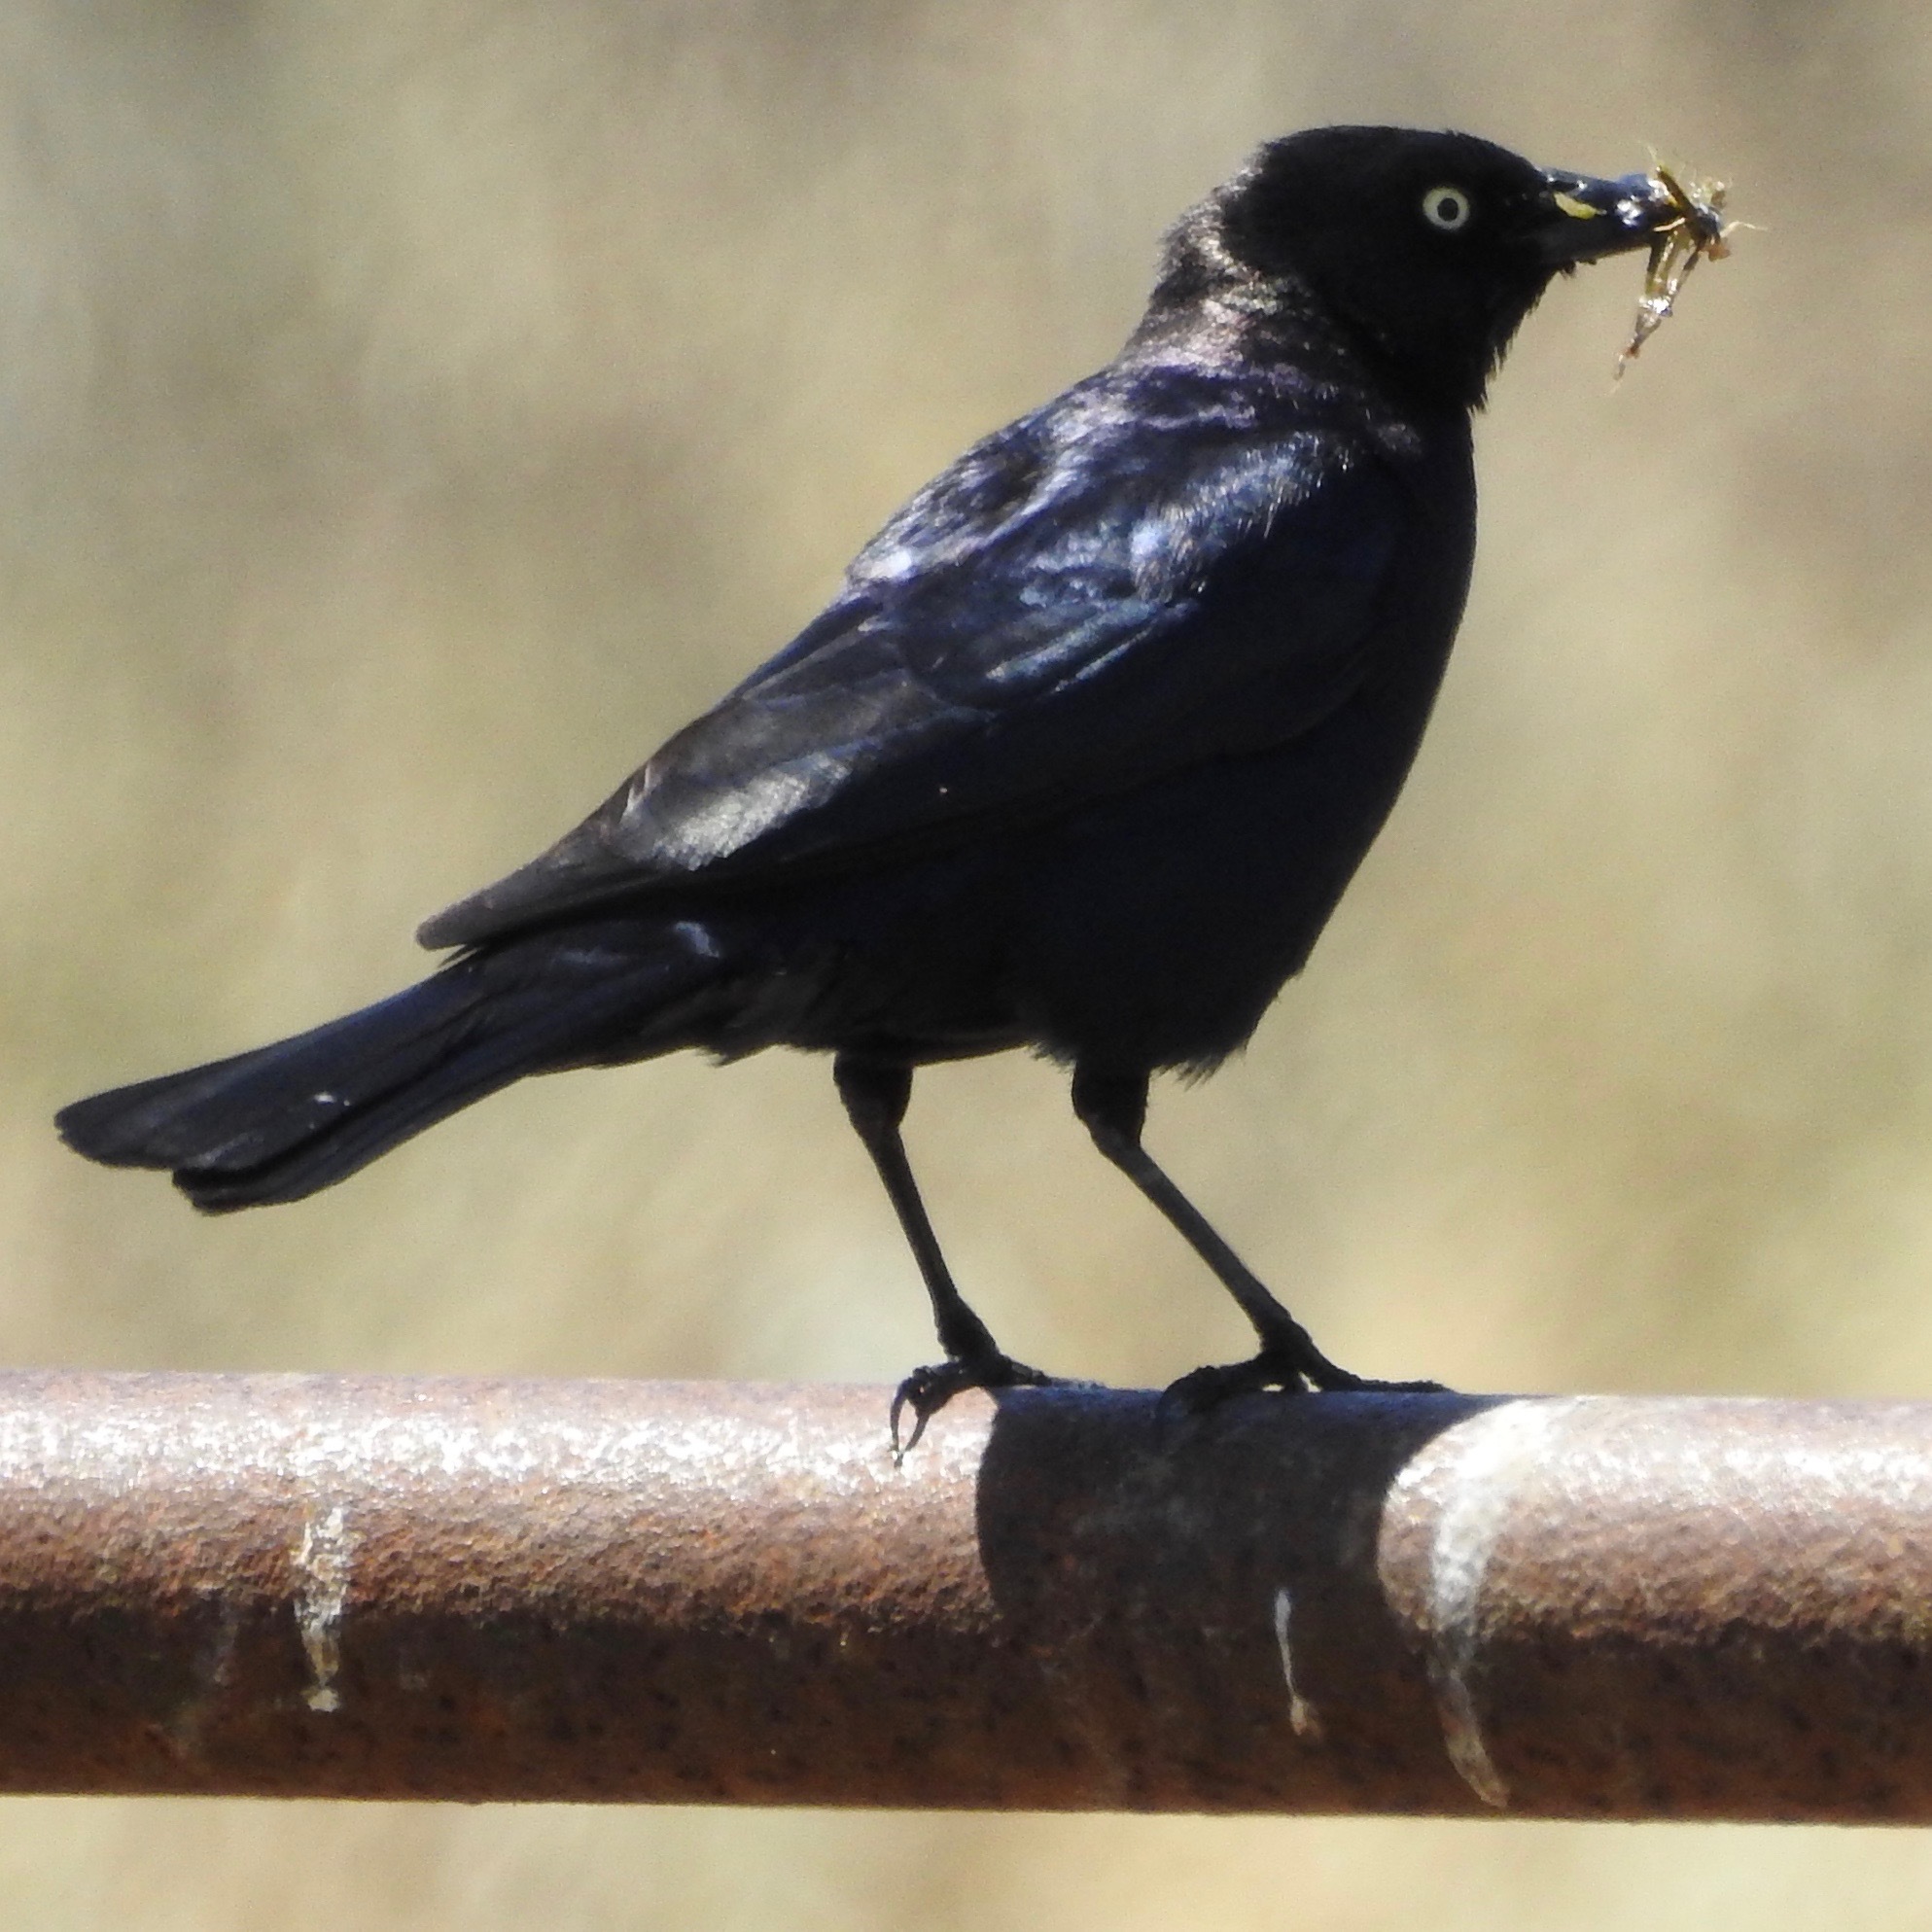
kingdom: Animalia
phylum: Chordata
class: Aves
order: Passeriformes
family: Icteridae
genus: Euphagus
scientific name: Euphagus cyanocephalus
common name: Brewer's blackbird
